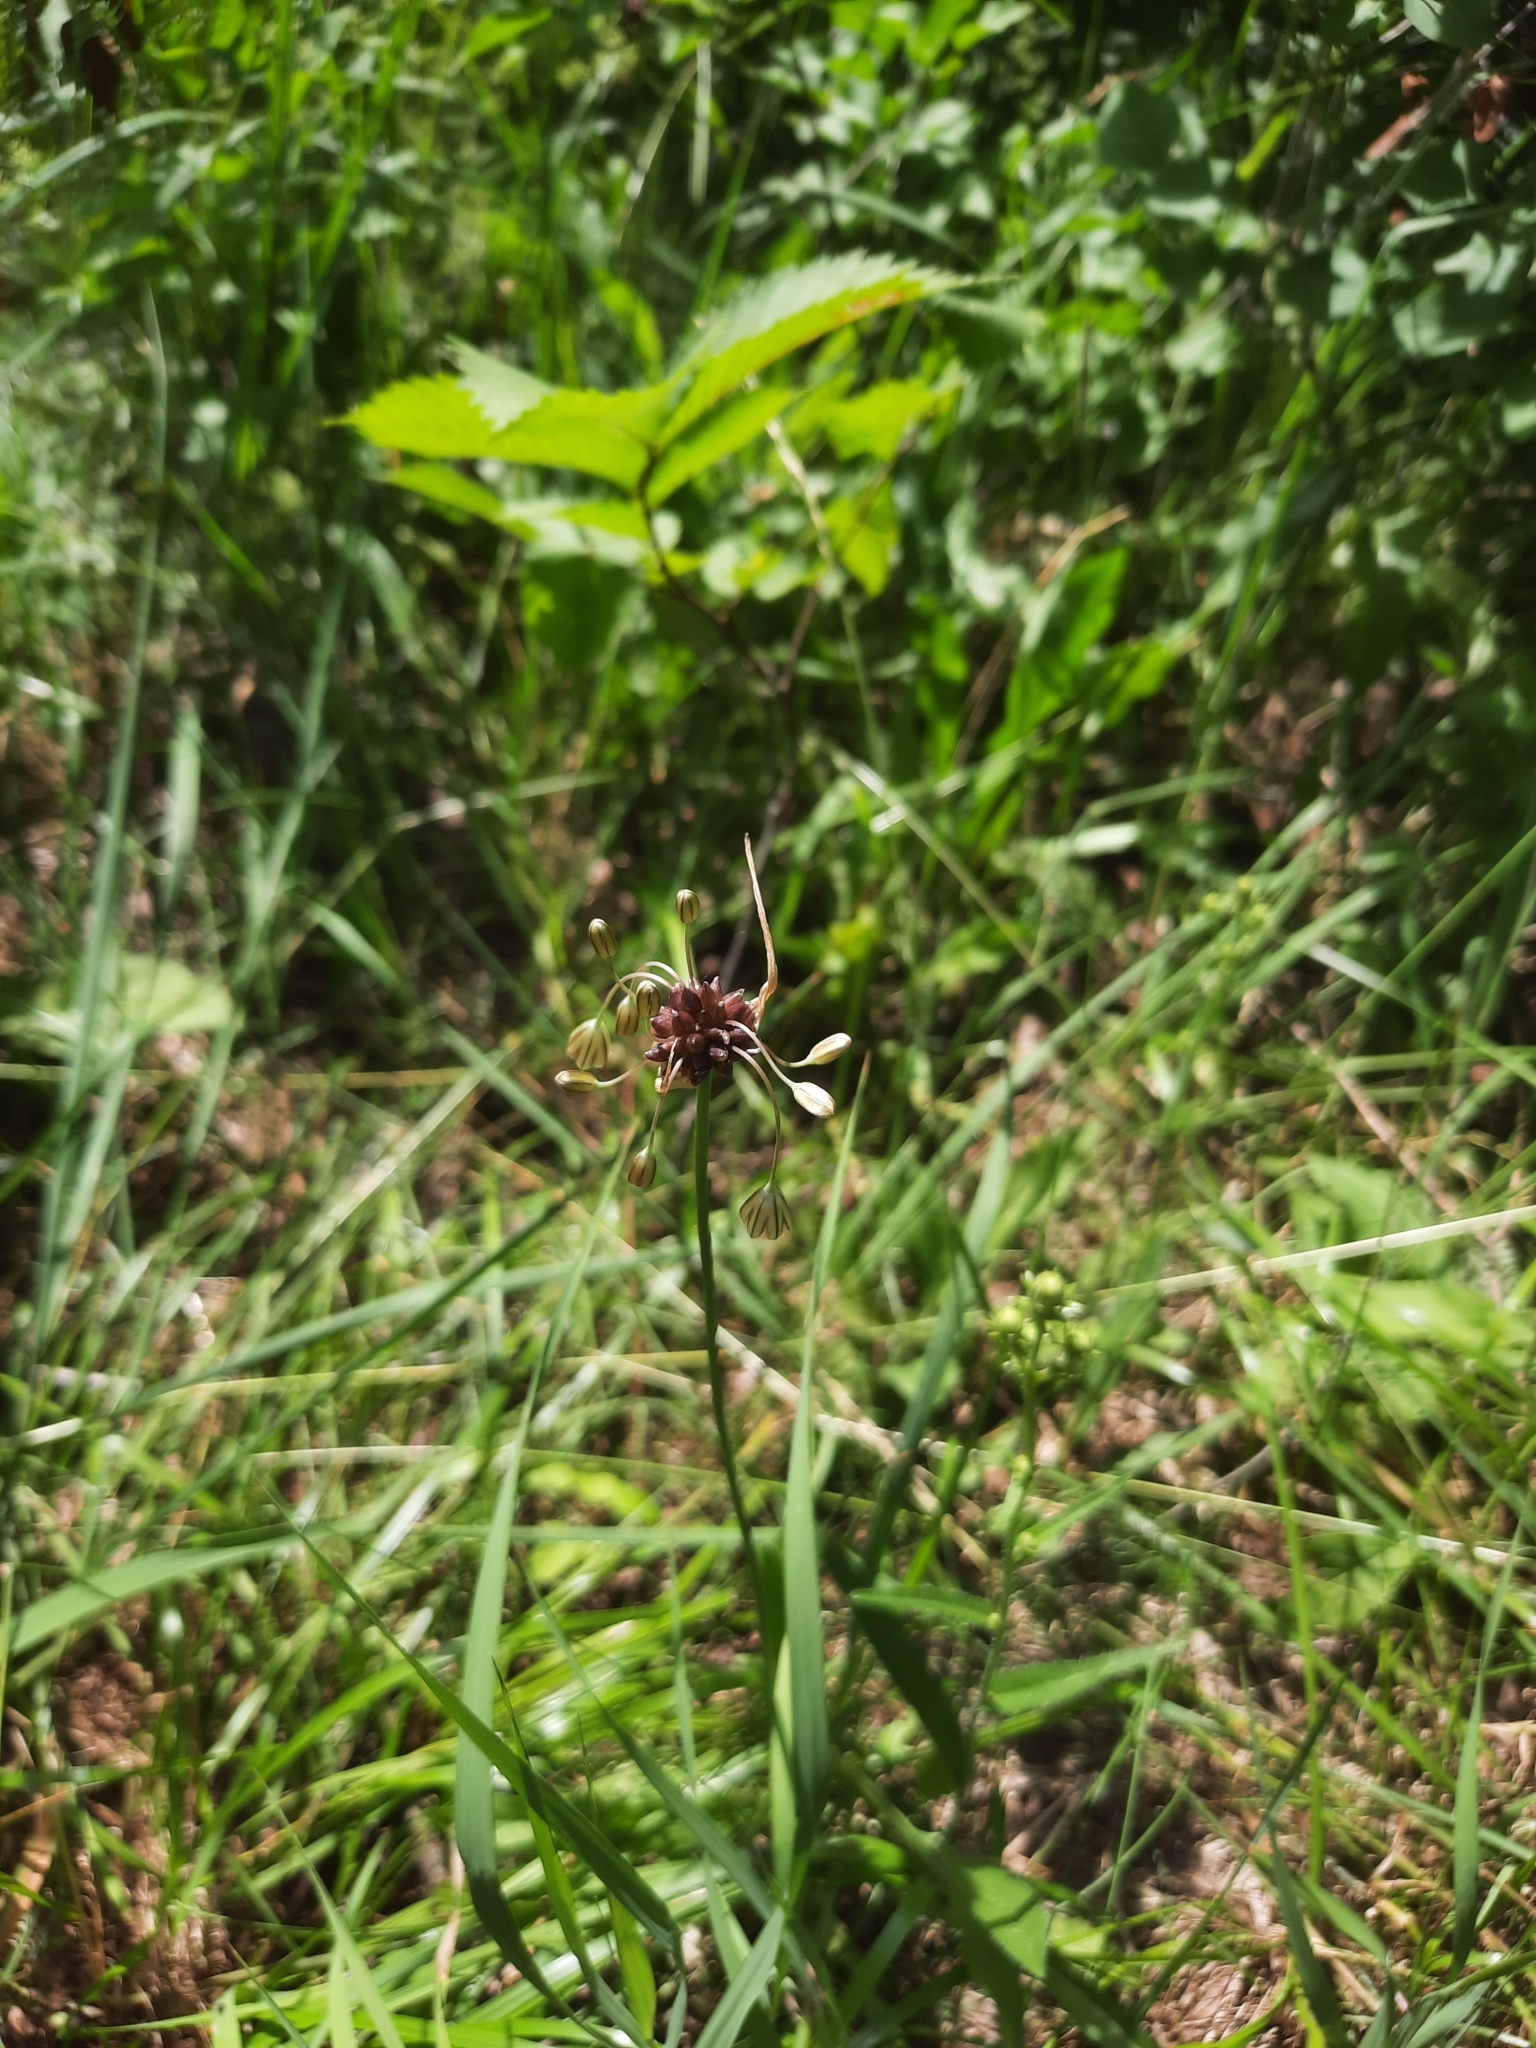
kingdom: Plantae
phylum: Tracheophyta
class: Liliopsida
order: Asparagales
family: Amaryllidaceae
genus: Allium
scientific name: Allium oleraceum
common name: Field garlic
